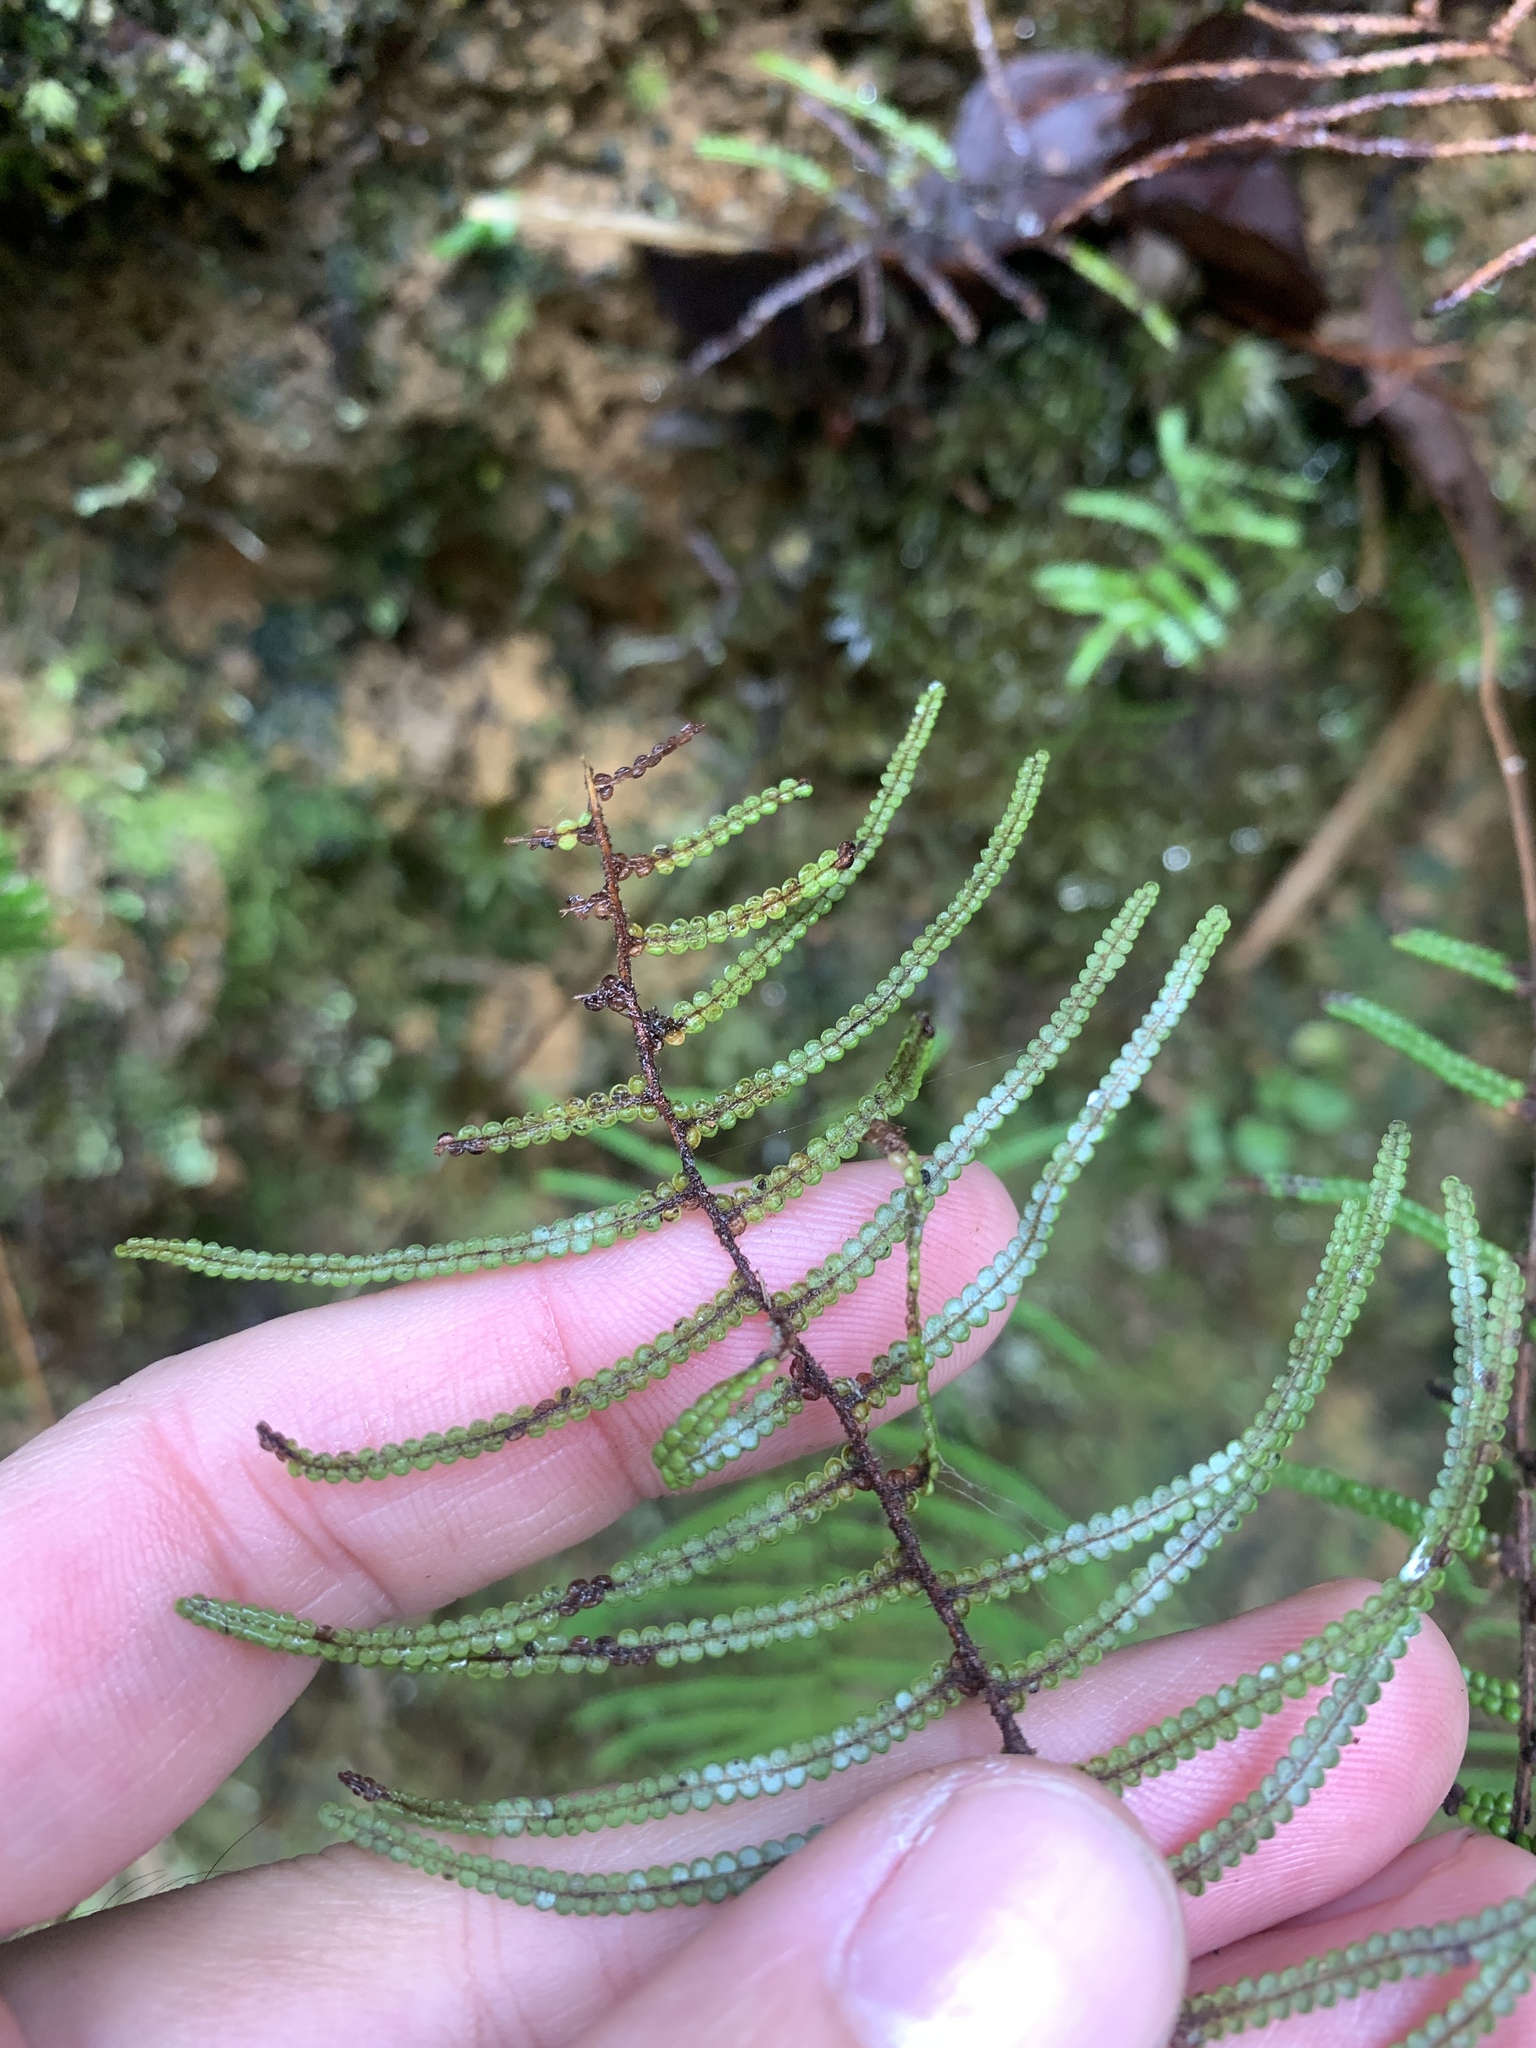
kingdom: Plantae
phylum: Tracheophyta
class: Polypodiopsida
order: Gleicheniales
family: Gleicheniaceae
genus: Gleichenia
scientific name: Gleichenia peltophora
